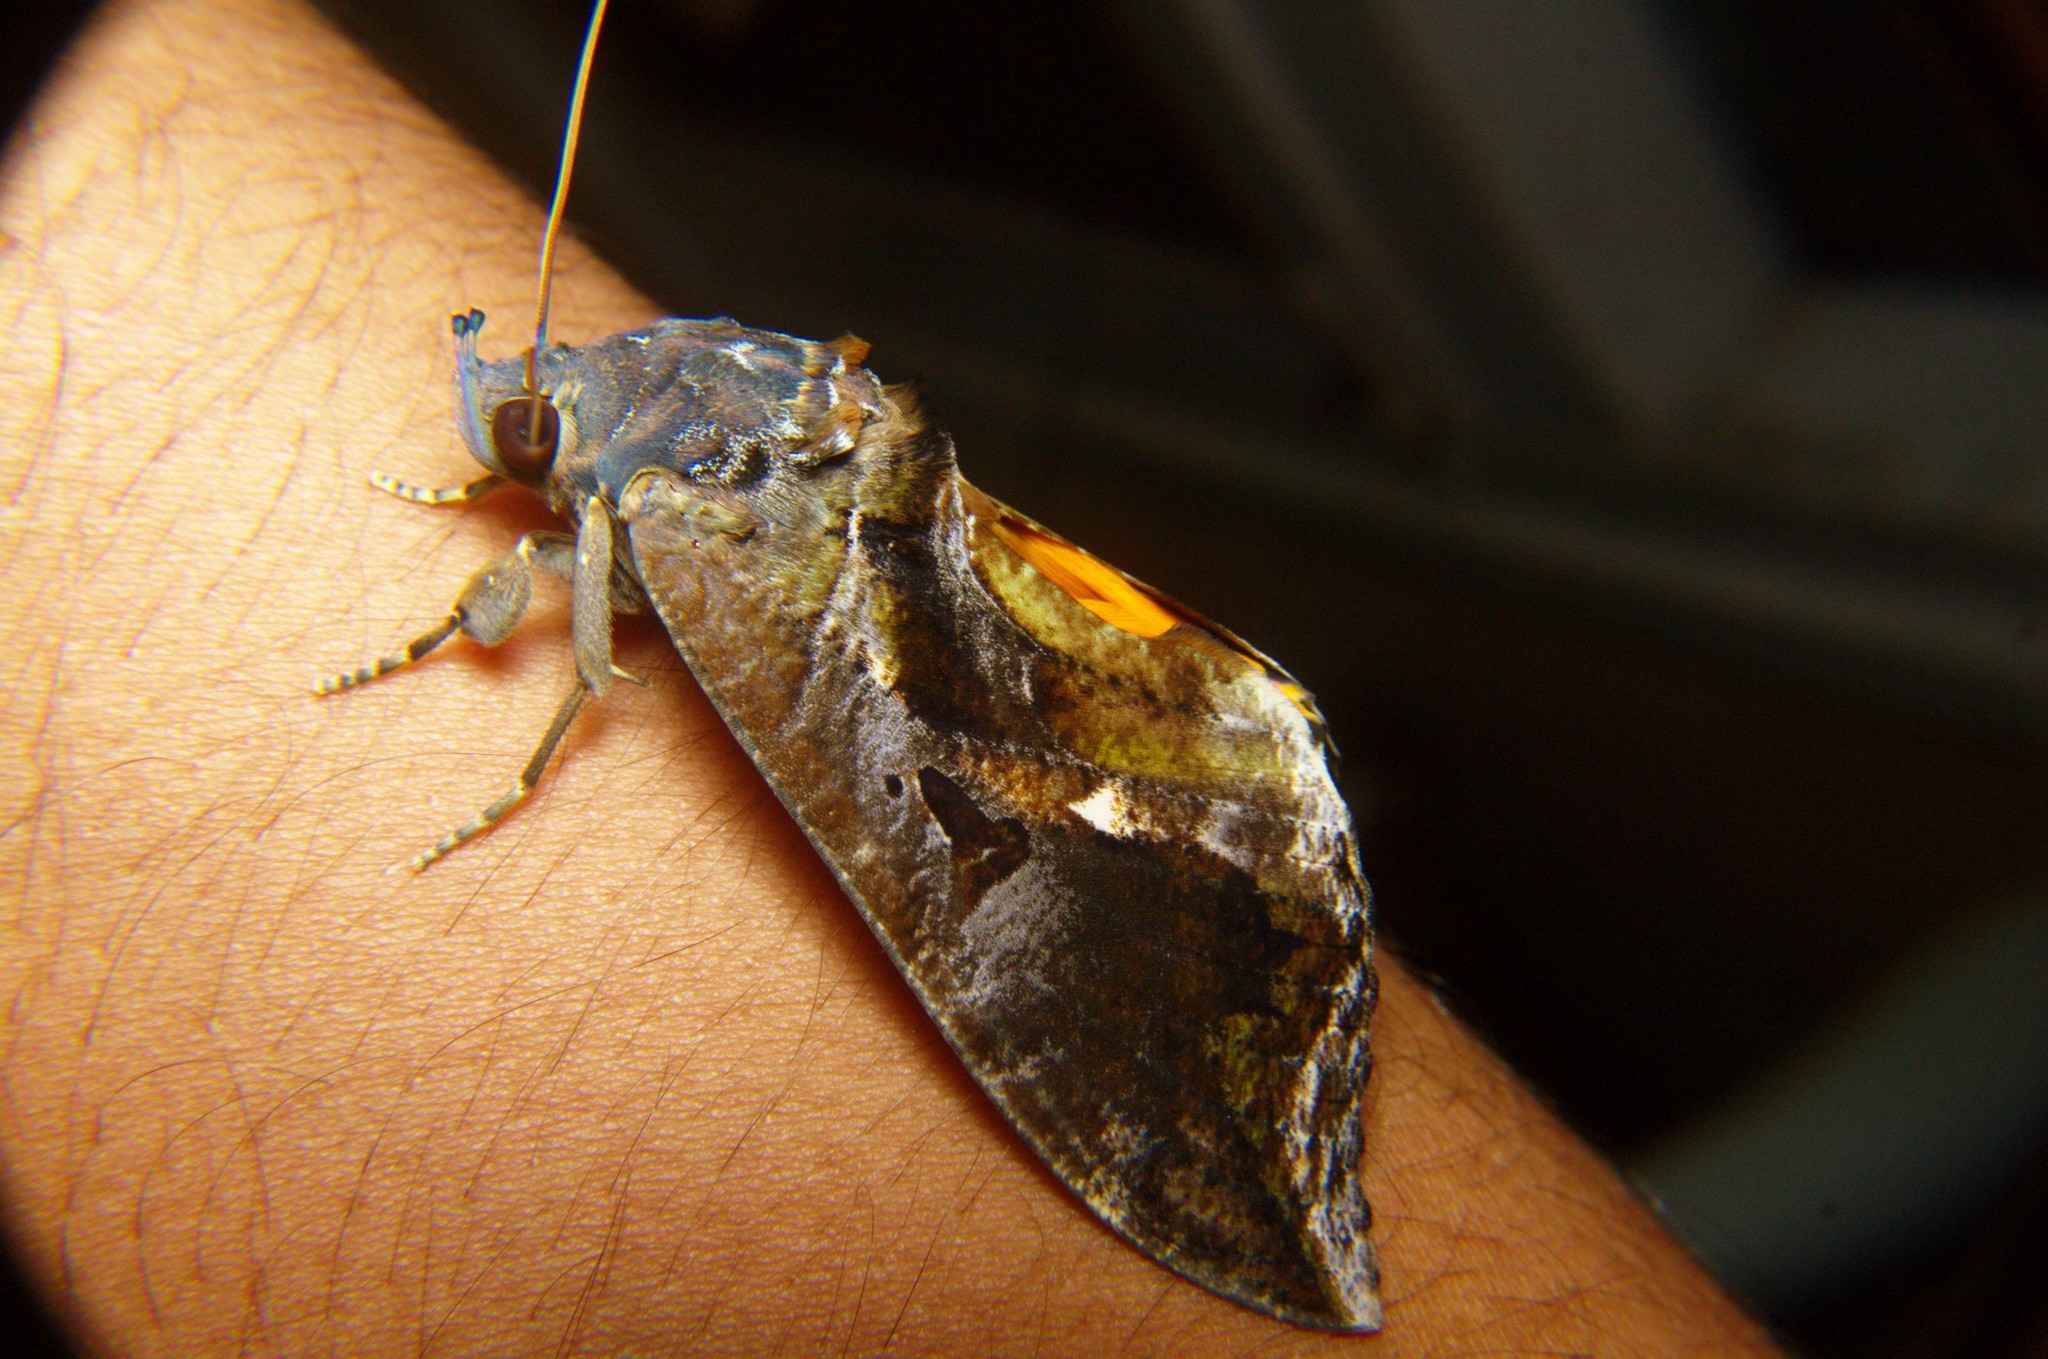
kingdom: Animalia
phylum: Arthropoda
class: Insecta
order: Lepidoptera
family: Erebidae
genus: Eudocima
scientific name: Eudocima phalonia
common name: Wasp
